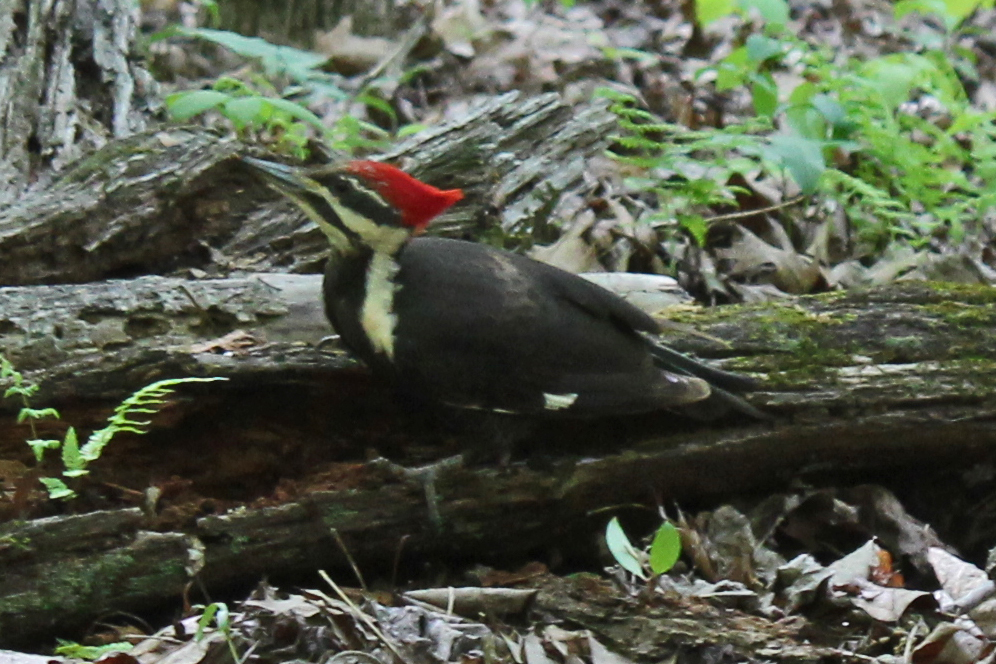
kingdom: Animalia
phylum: Chordata
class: Aves
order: Piciformes
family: Picidae
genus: Dryocopus
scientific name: Dryocopus pileatus
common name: Pileated woodpecker
